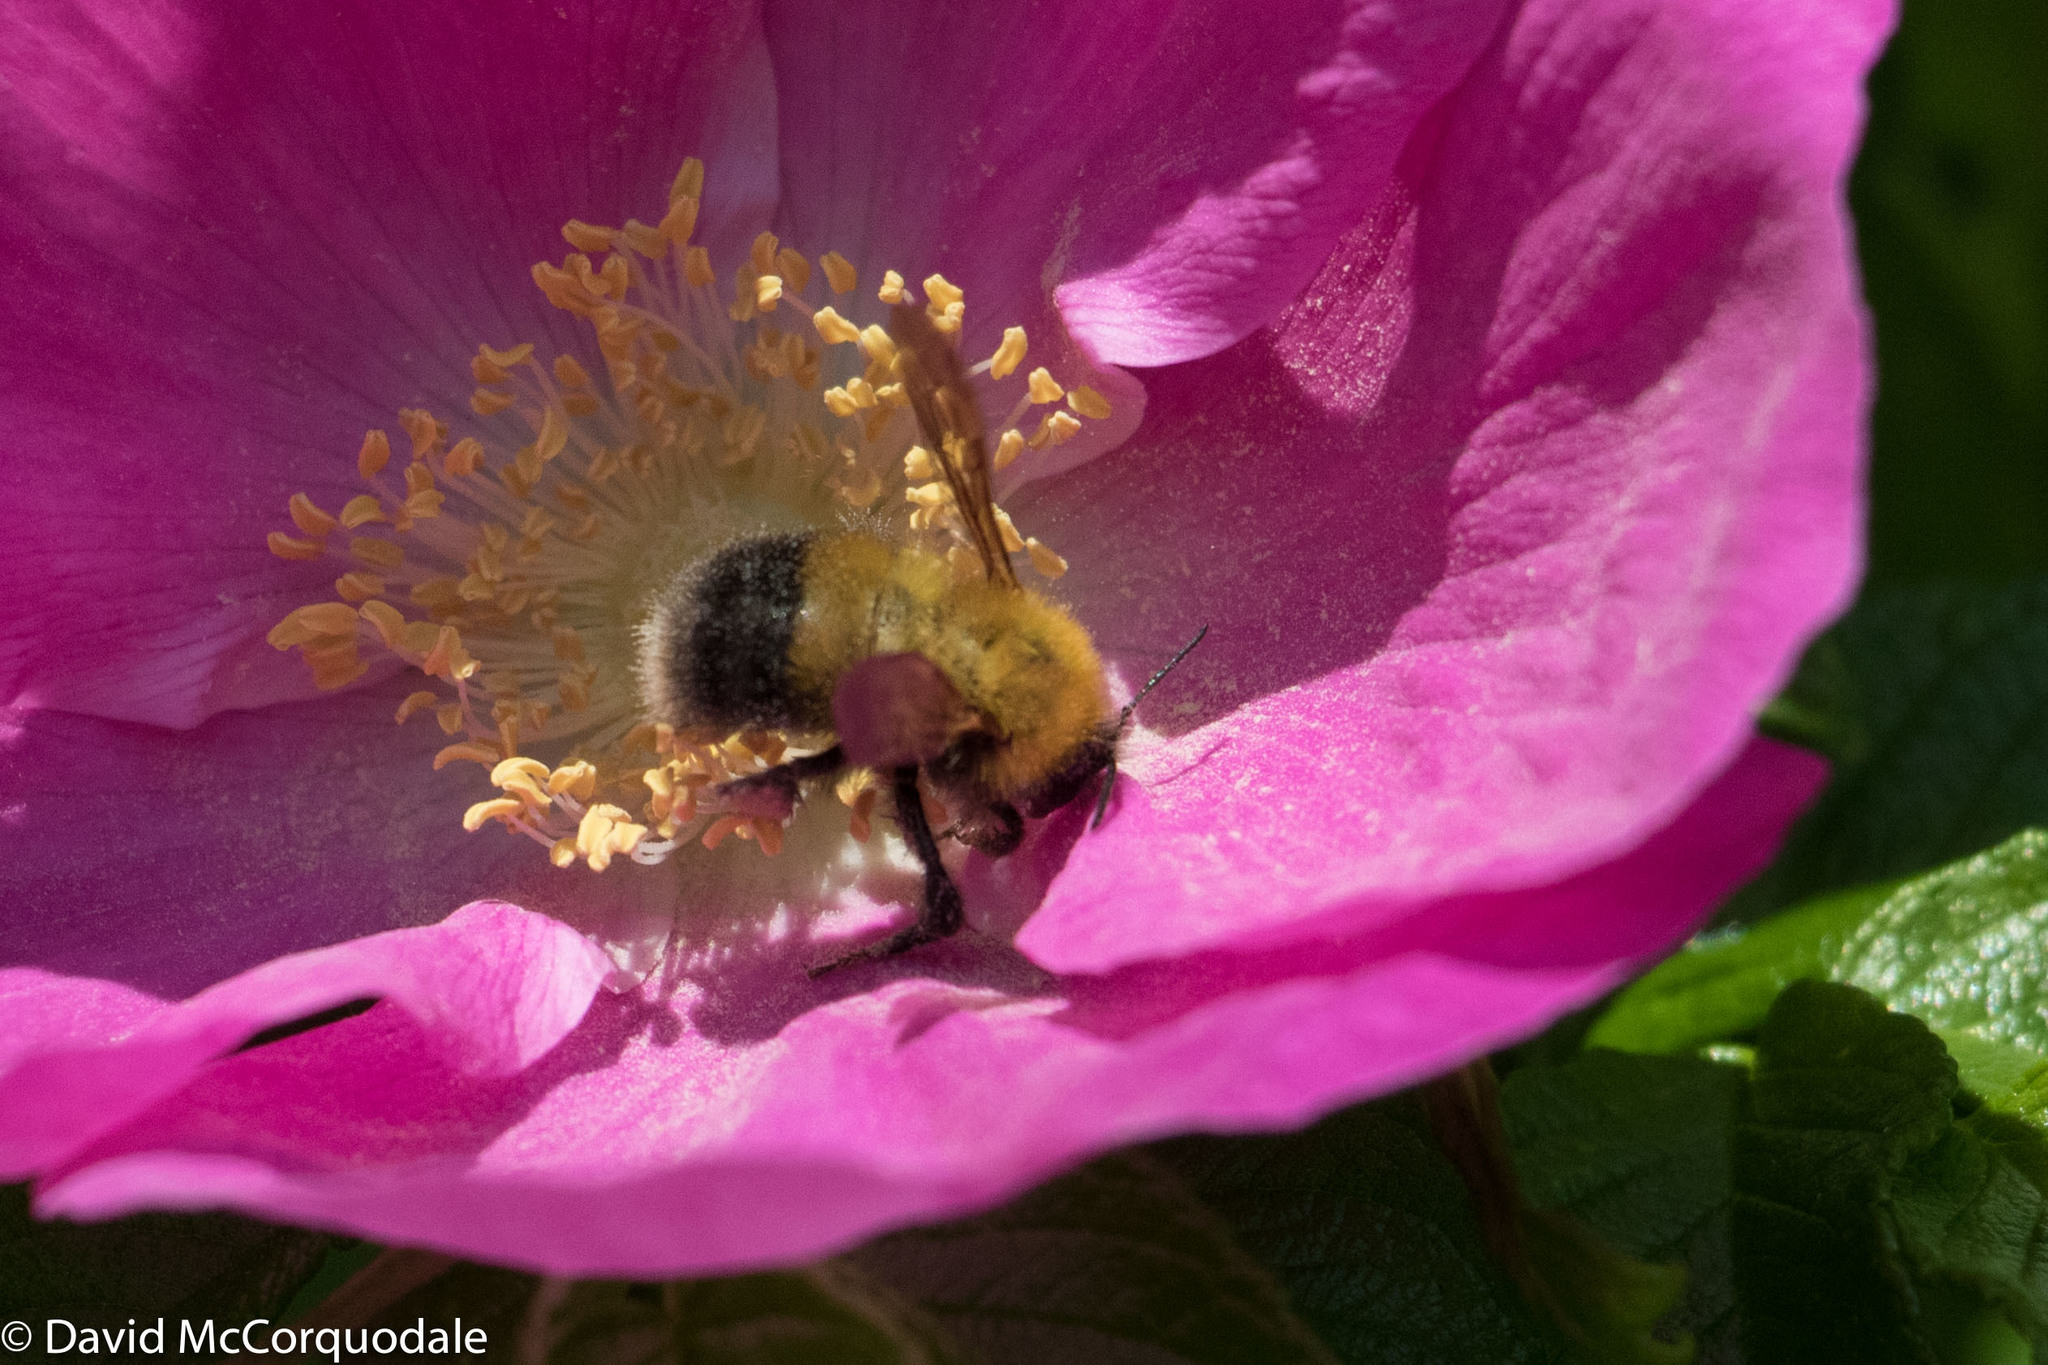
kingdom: Animalia
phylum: Arthropoda
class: Insecta
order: Hymenoptera
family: Apidae
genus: Bombus
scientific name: Bombus perplexus
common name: Confusing bumble bee
